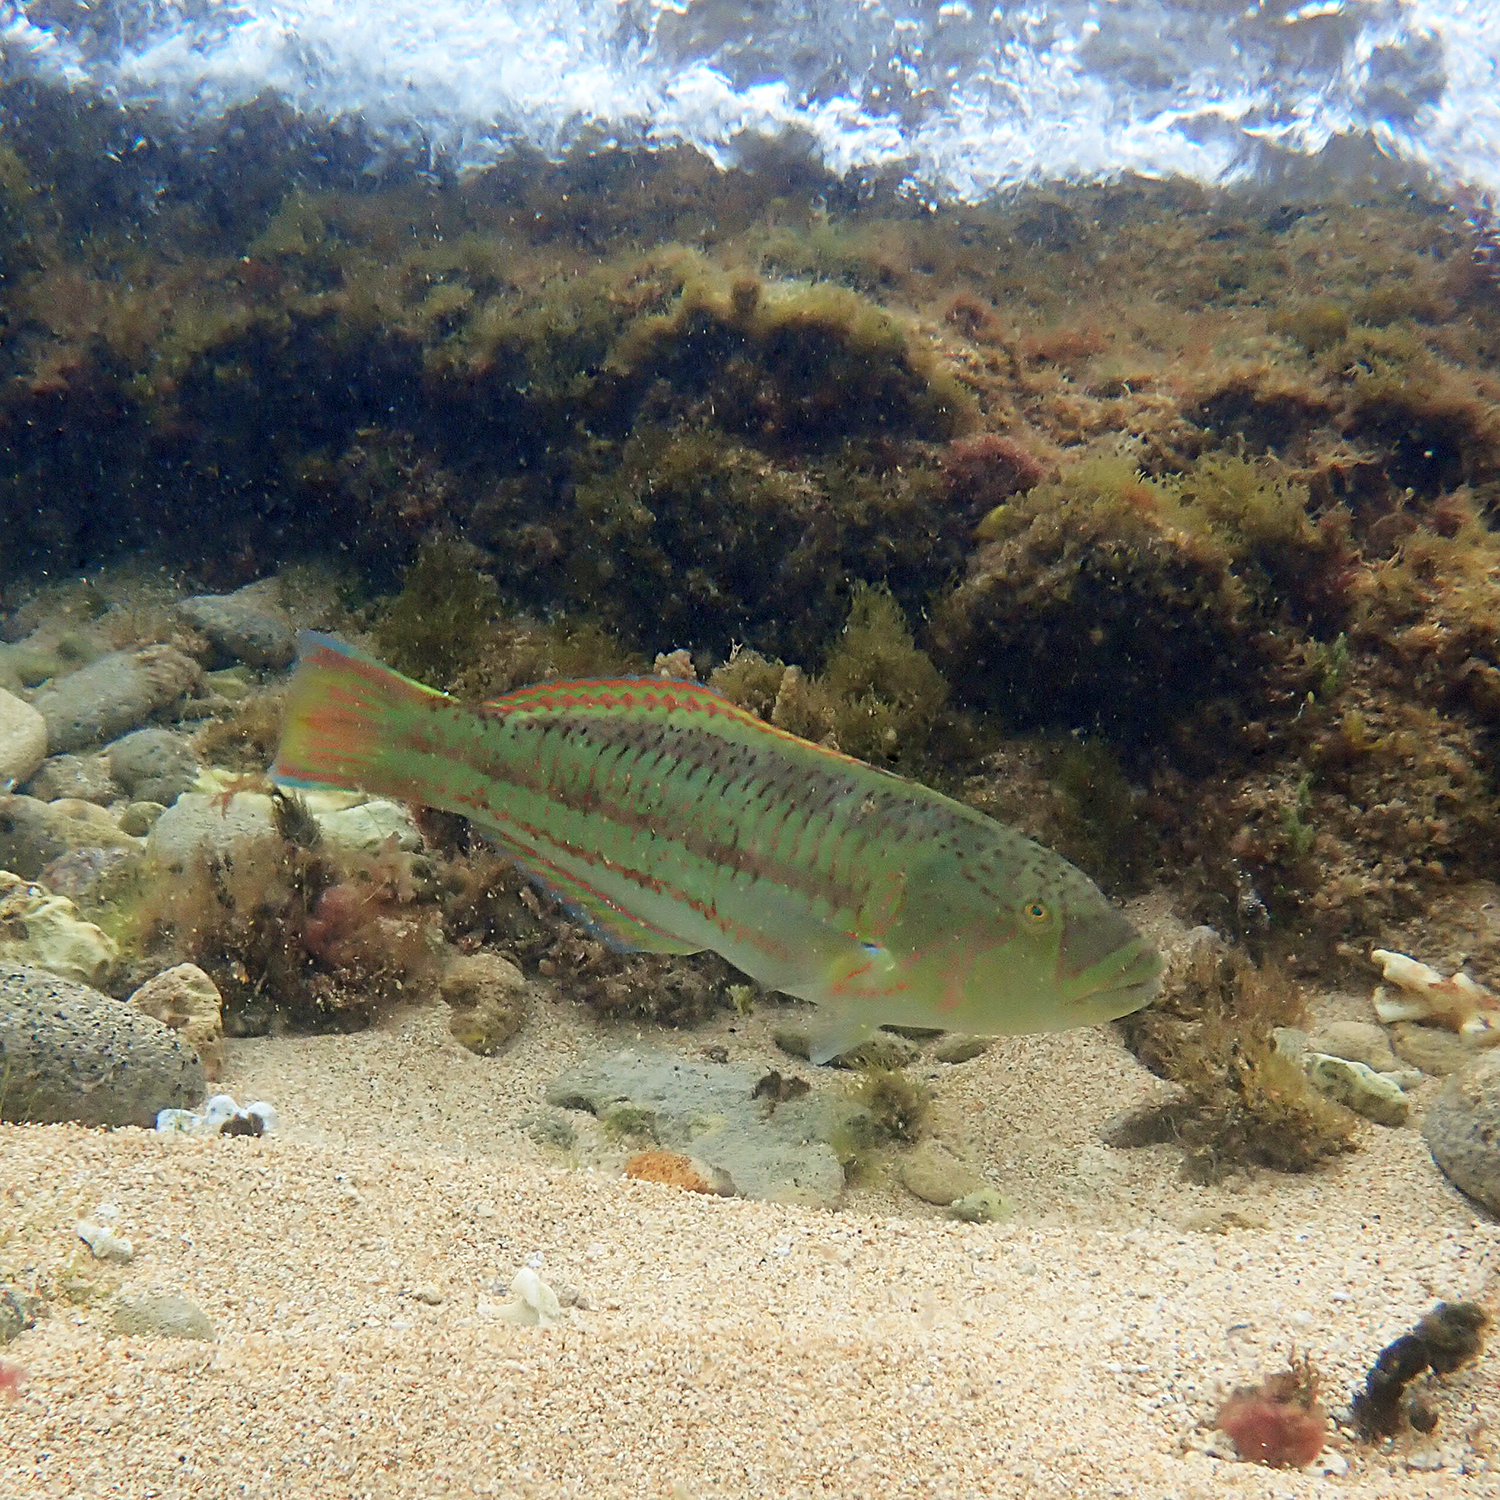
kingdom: Animalia
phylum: Chordata
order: Perciformes
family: Labridae
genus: Thalassoma
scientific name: Thalassoma purpureum
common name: Parrotfish
